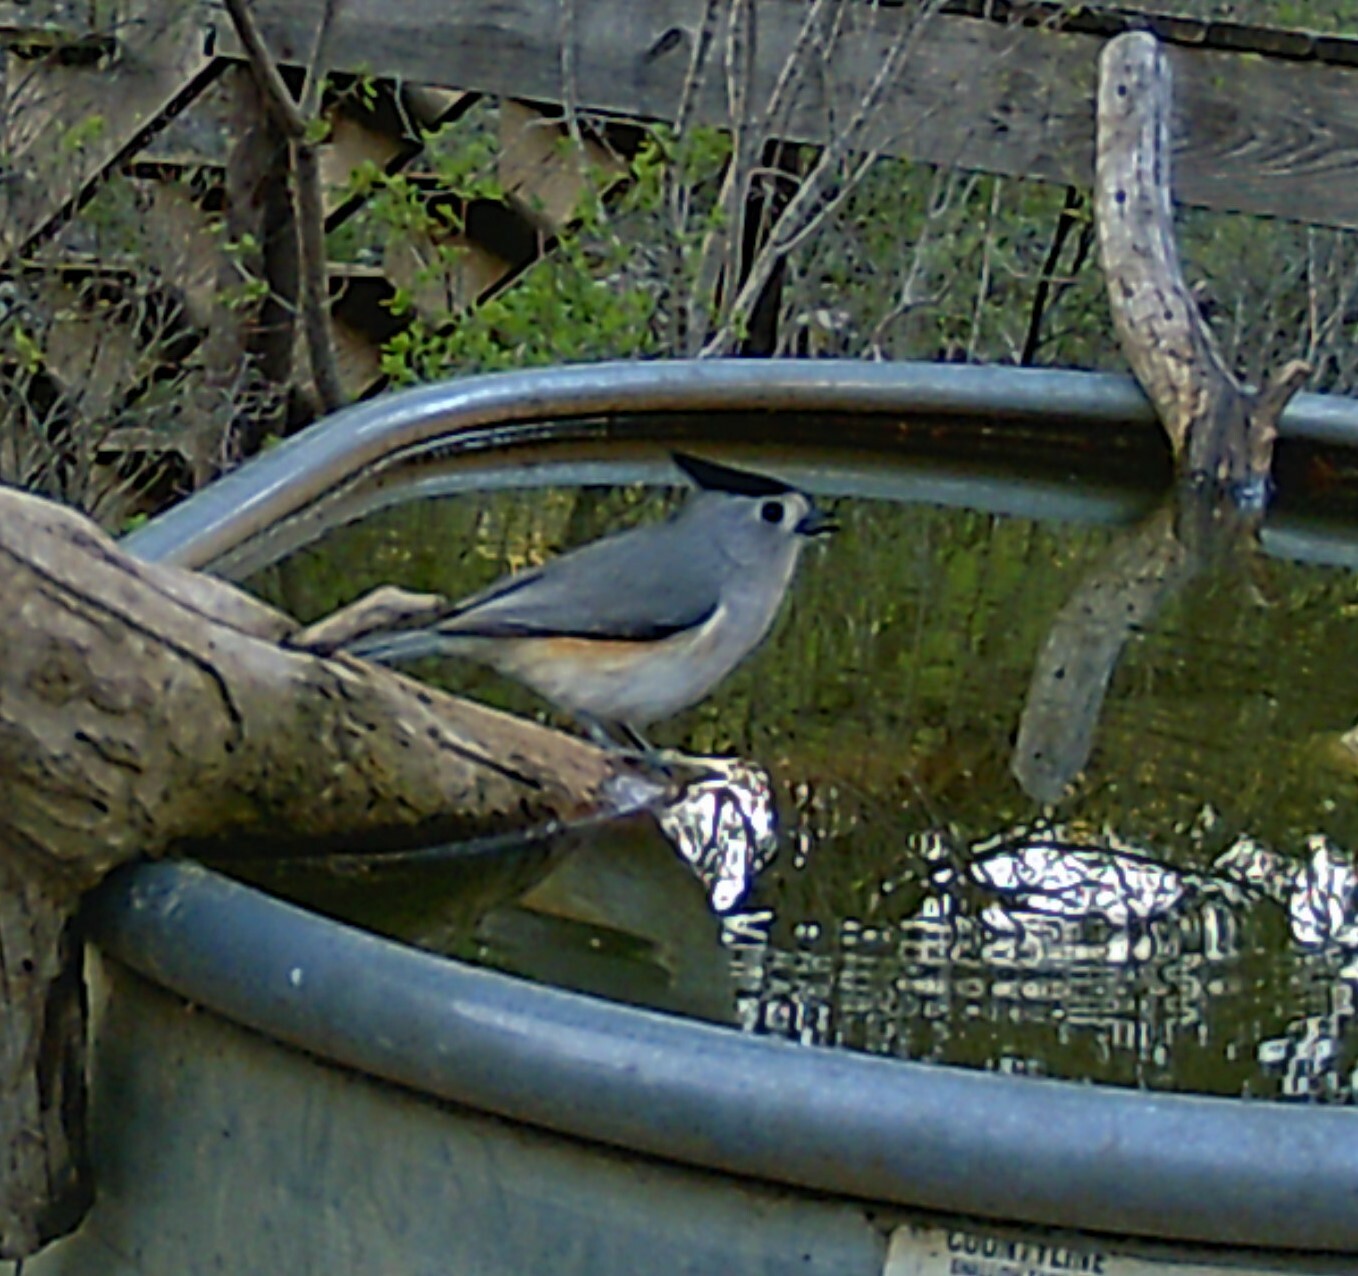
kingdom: Animalia
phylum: Chordata
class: Aves
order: Passeriformes
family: Paridae
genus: Baeolophus
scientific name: Baeolophus atricristatus
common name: Black-crested titmouse
